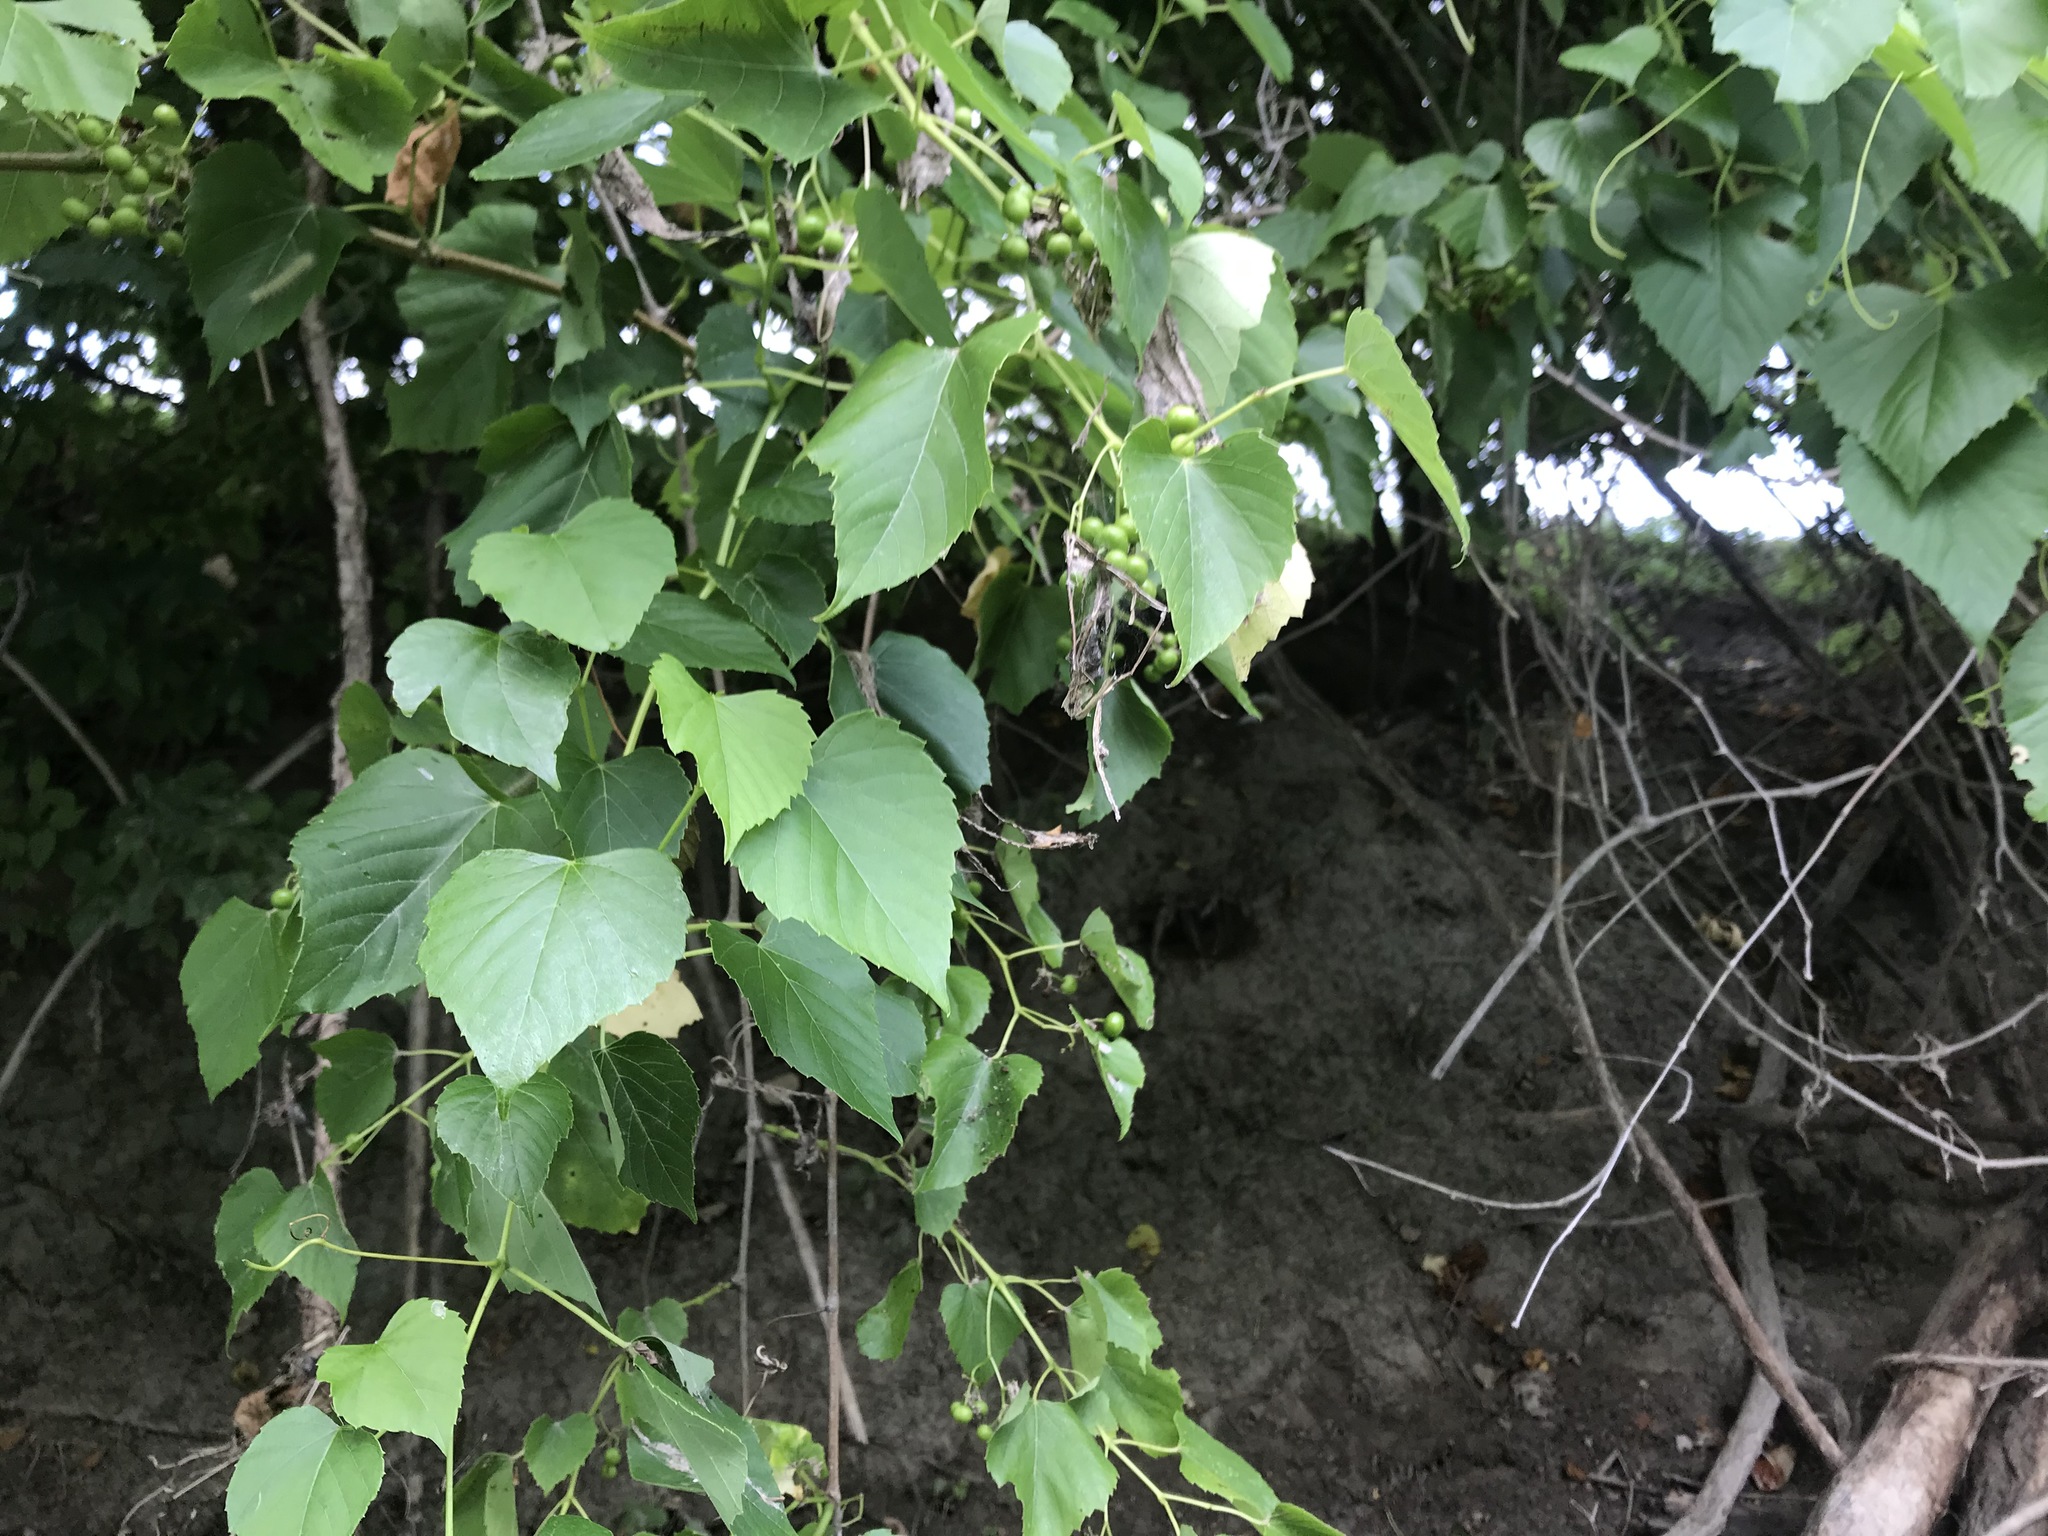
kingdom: Plantae
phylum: Tracheophyta
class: Magnoliopsida
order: Vitales
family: Vitaceae
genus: Ampelopsis
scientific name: Ampelopsis cordata
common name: Heart-leaf ampelopsis
